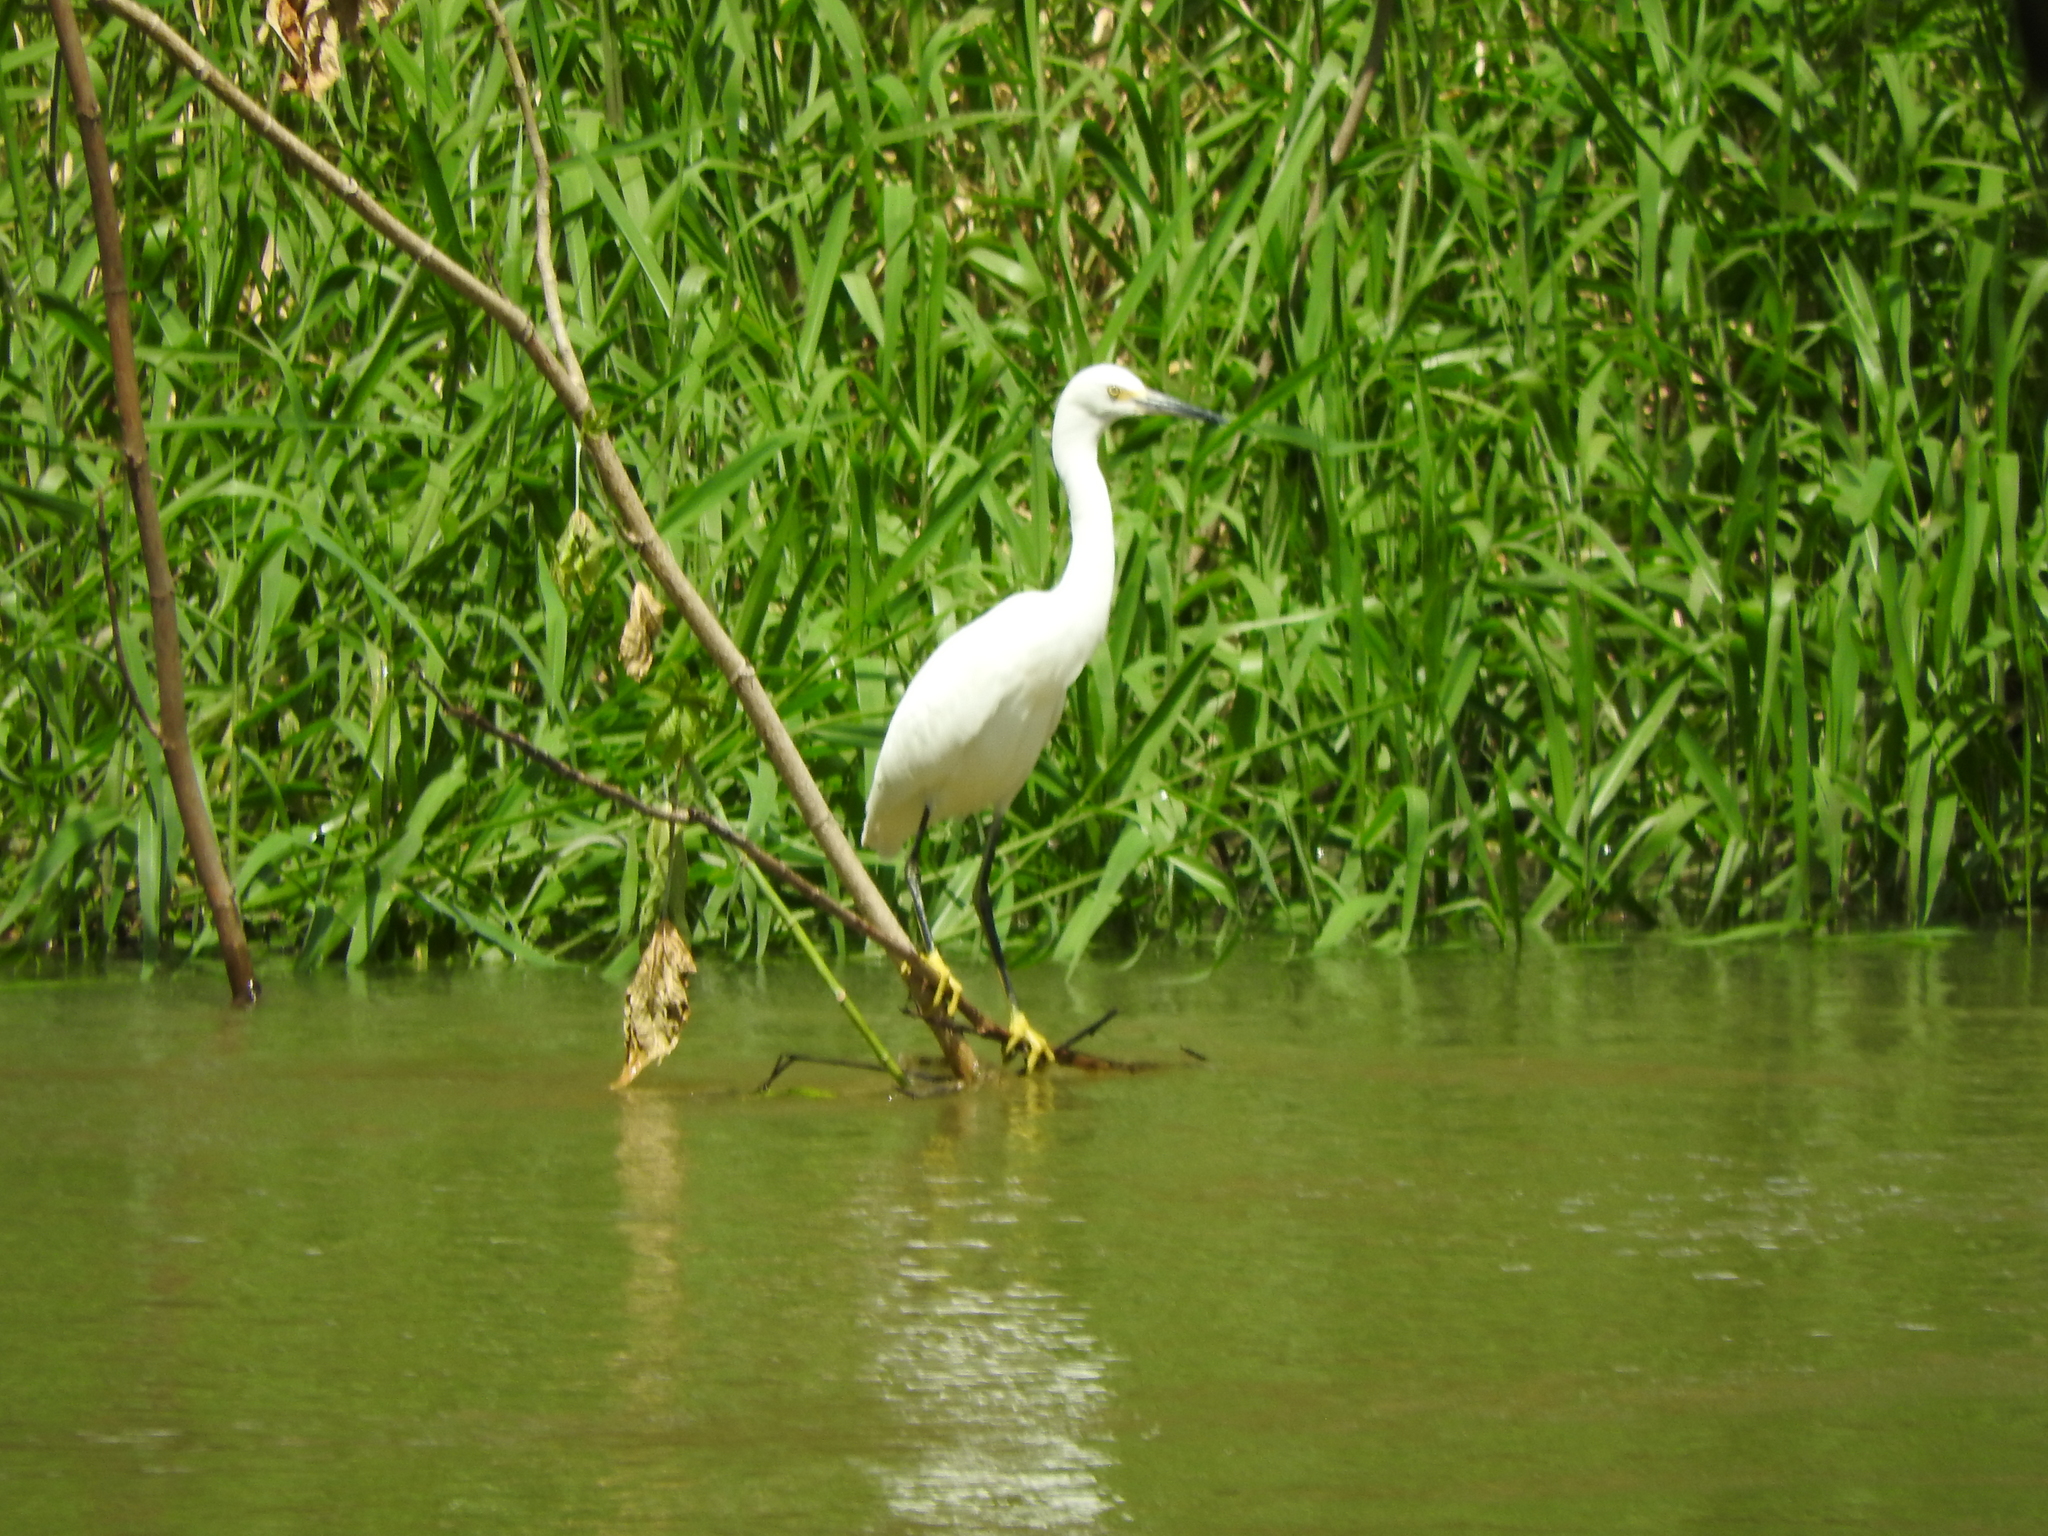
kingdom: Animalia
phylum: Chordata
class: Aves
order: Pelecaniformes
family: Ardeidae
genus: Egretta
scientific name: Egretta thula
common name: Snowy egret
